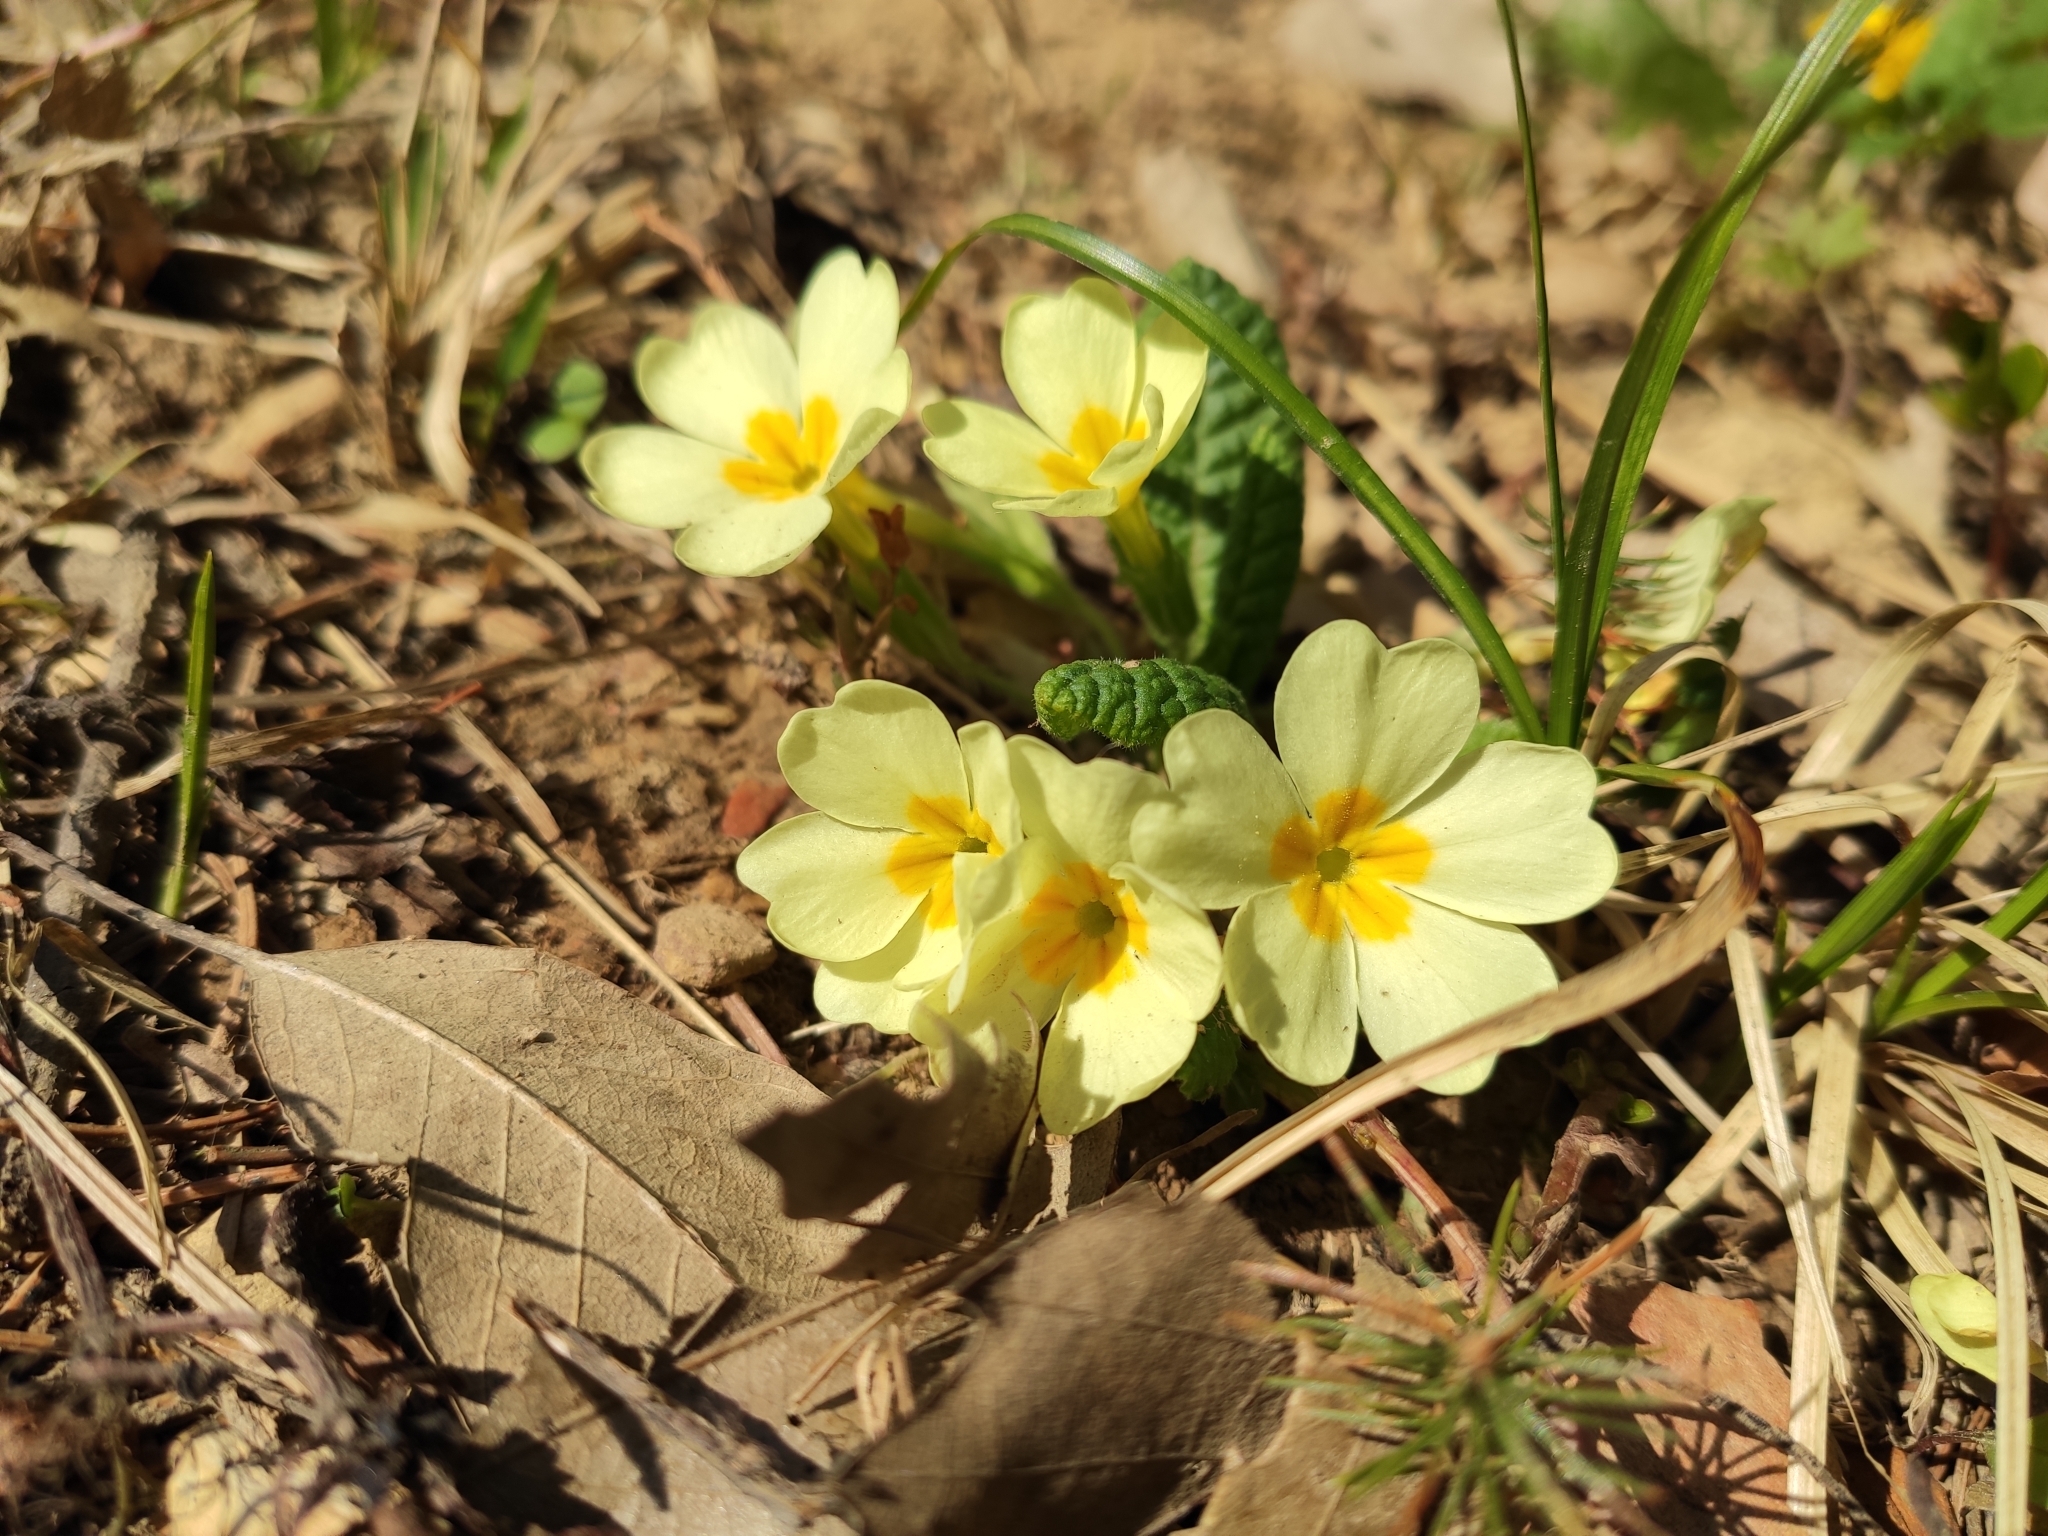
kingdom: Plantae
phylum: Tracheophyta
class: Magnoliopsida
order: Ericales
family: Primulaceae
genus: Primula
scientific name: Primula vulgaris
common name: Primrose
